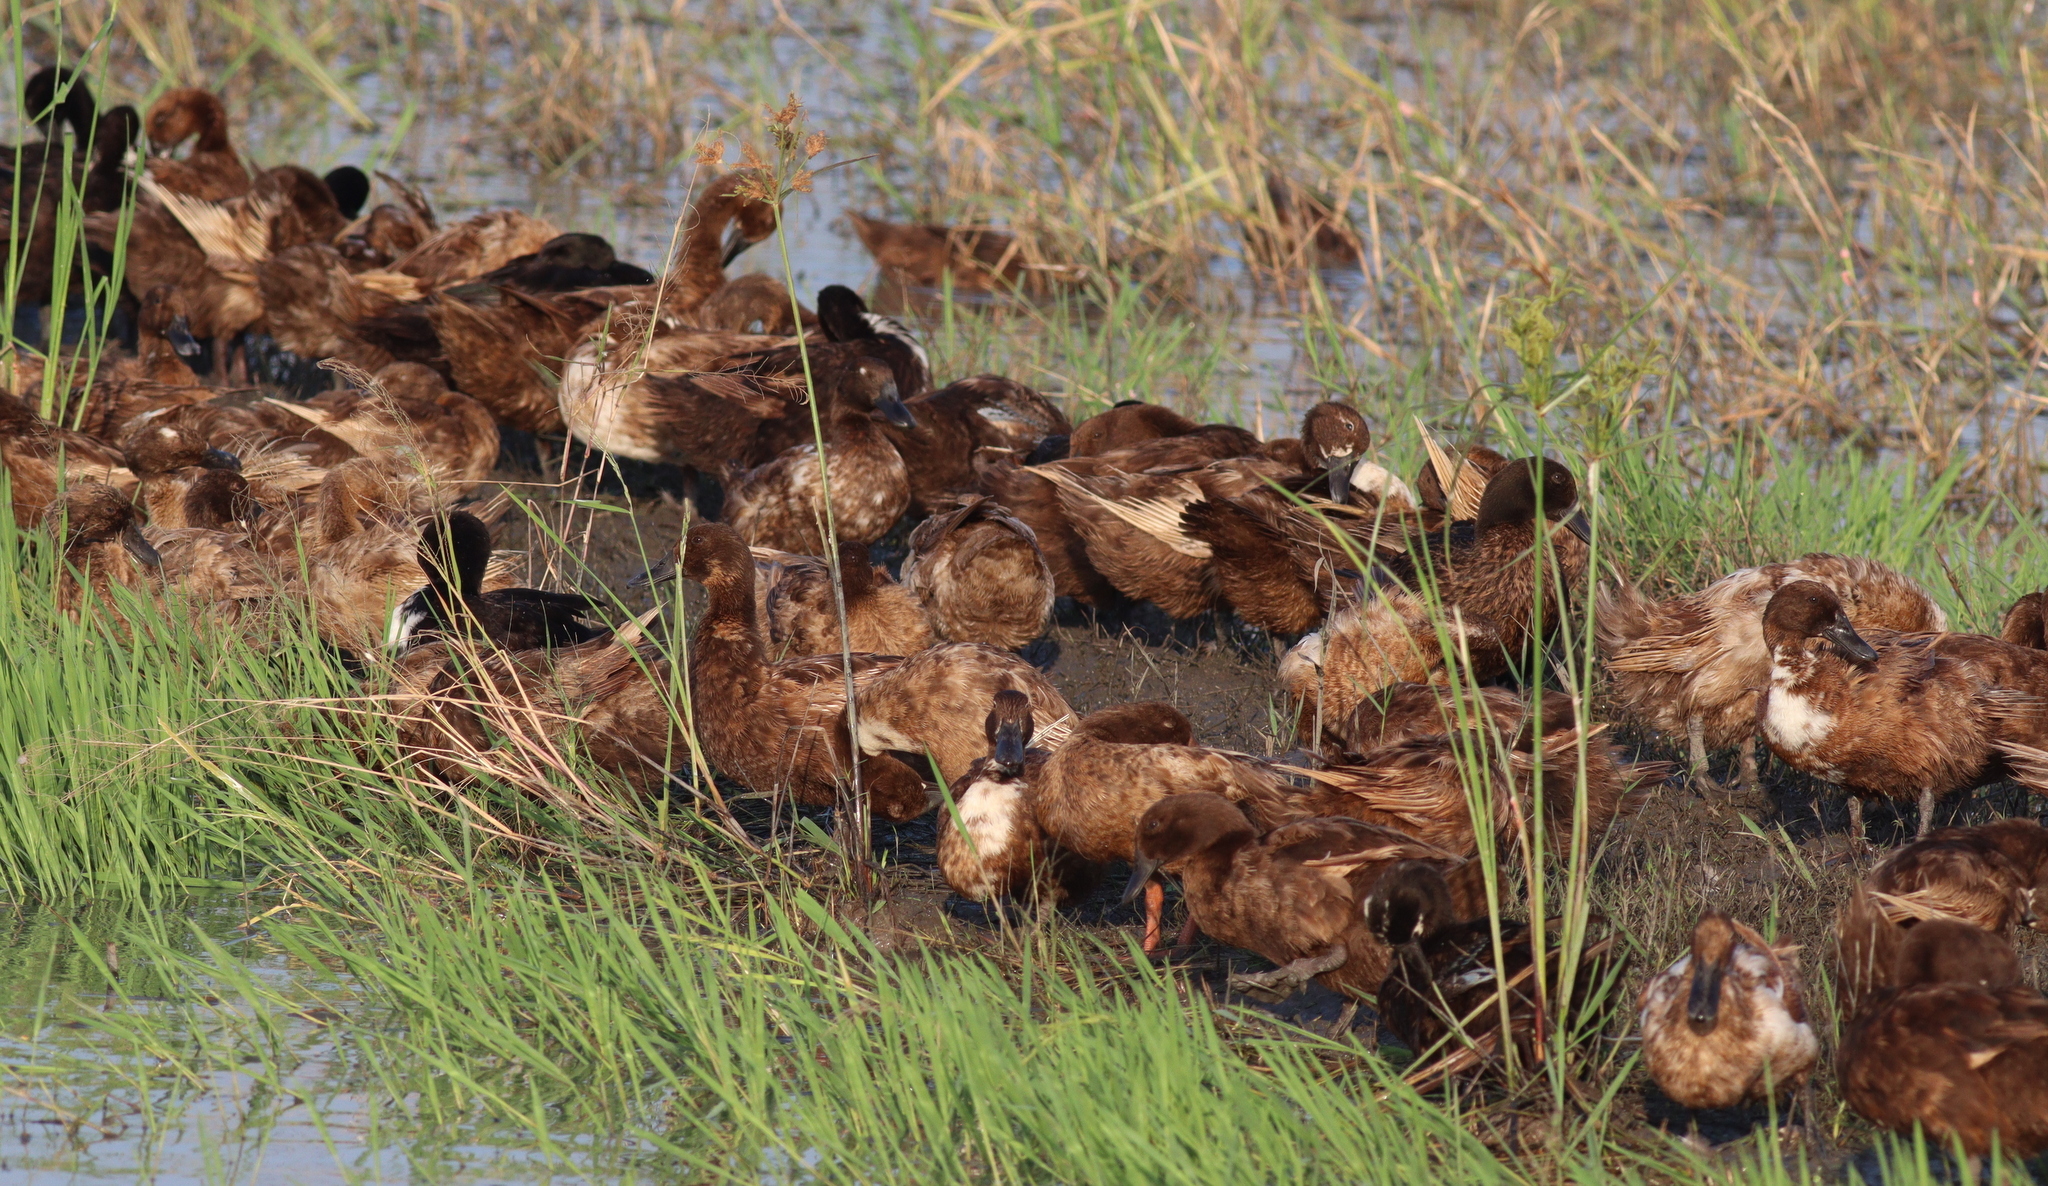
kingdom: Animalia
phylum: Chordata
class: Aves
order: Anseriformes
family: Anatidae
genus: Anas
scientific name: Anas platyrhynchos
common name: Mallard
